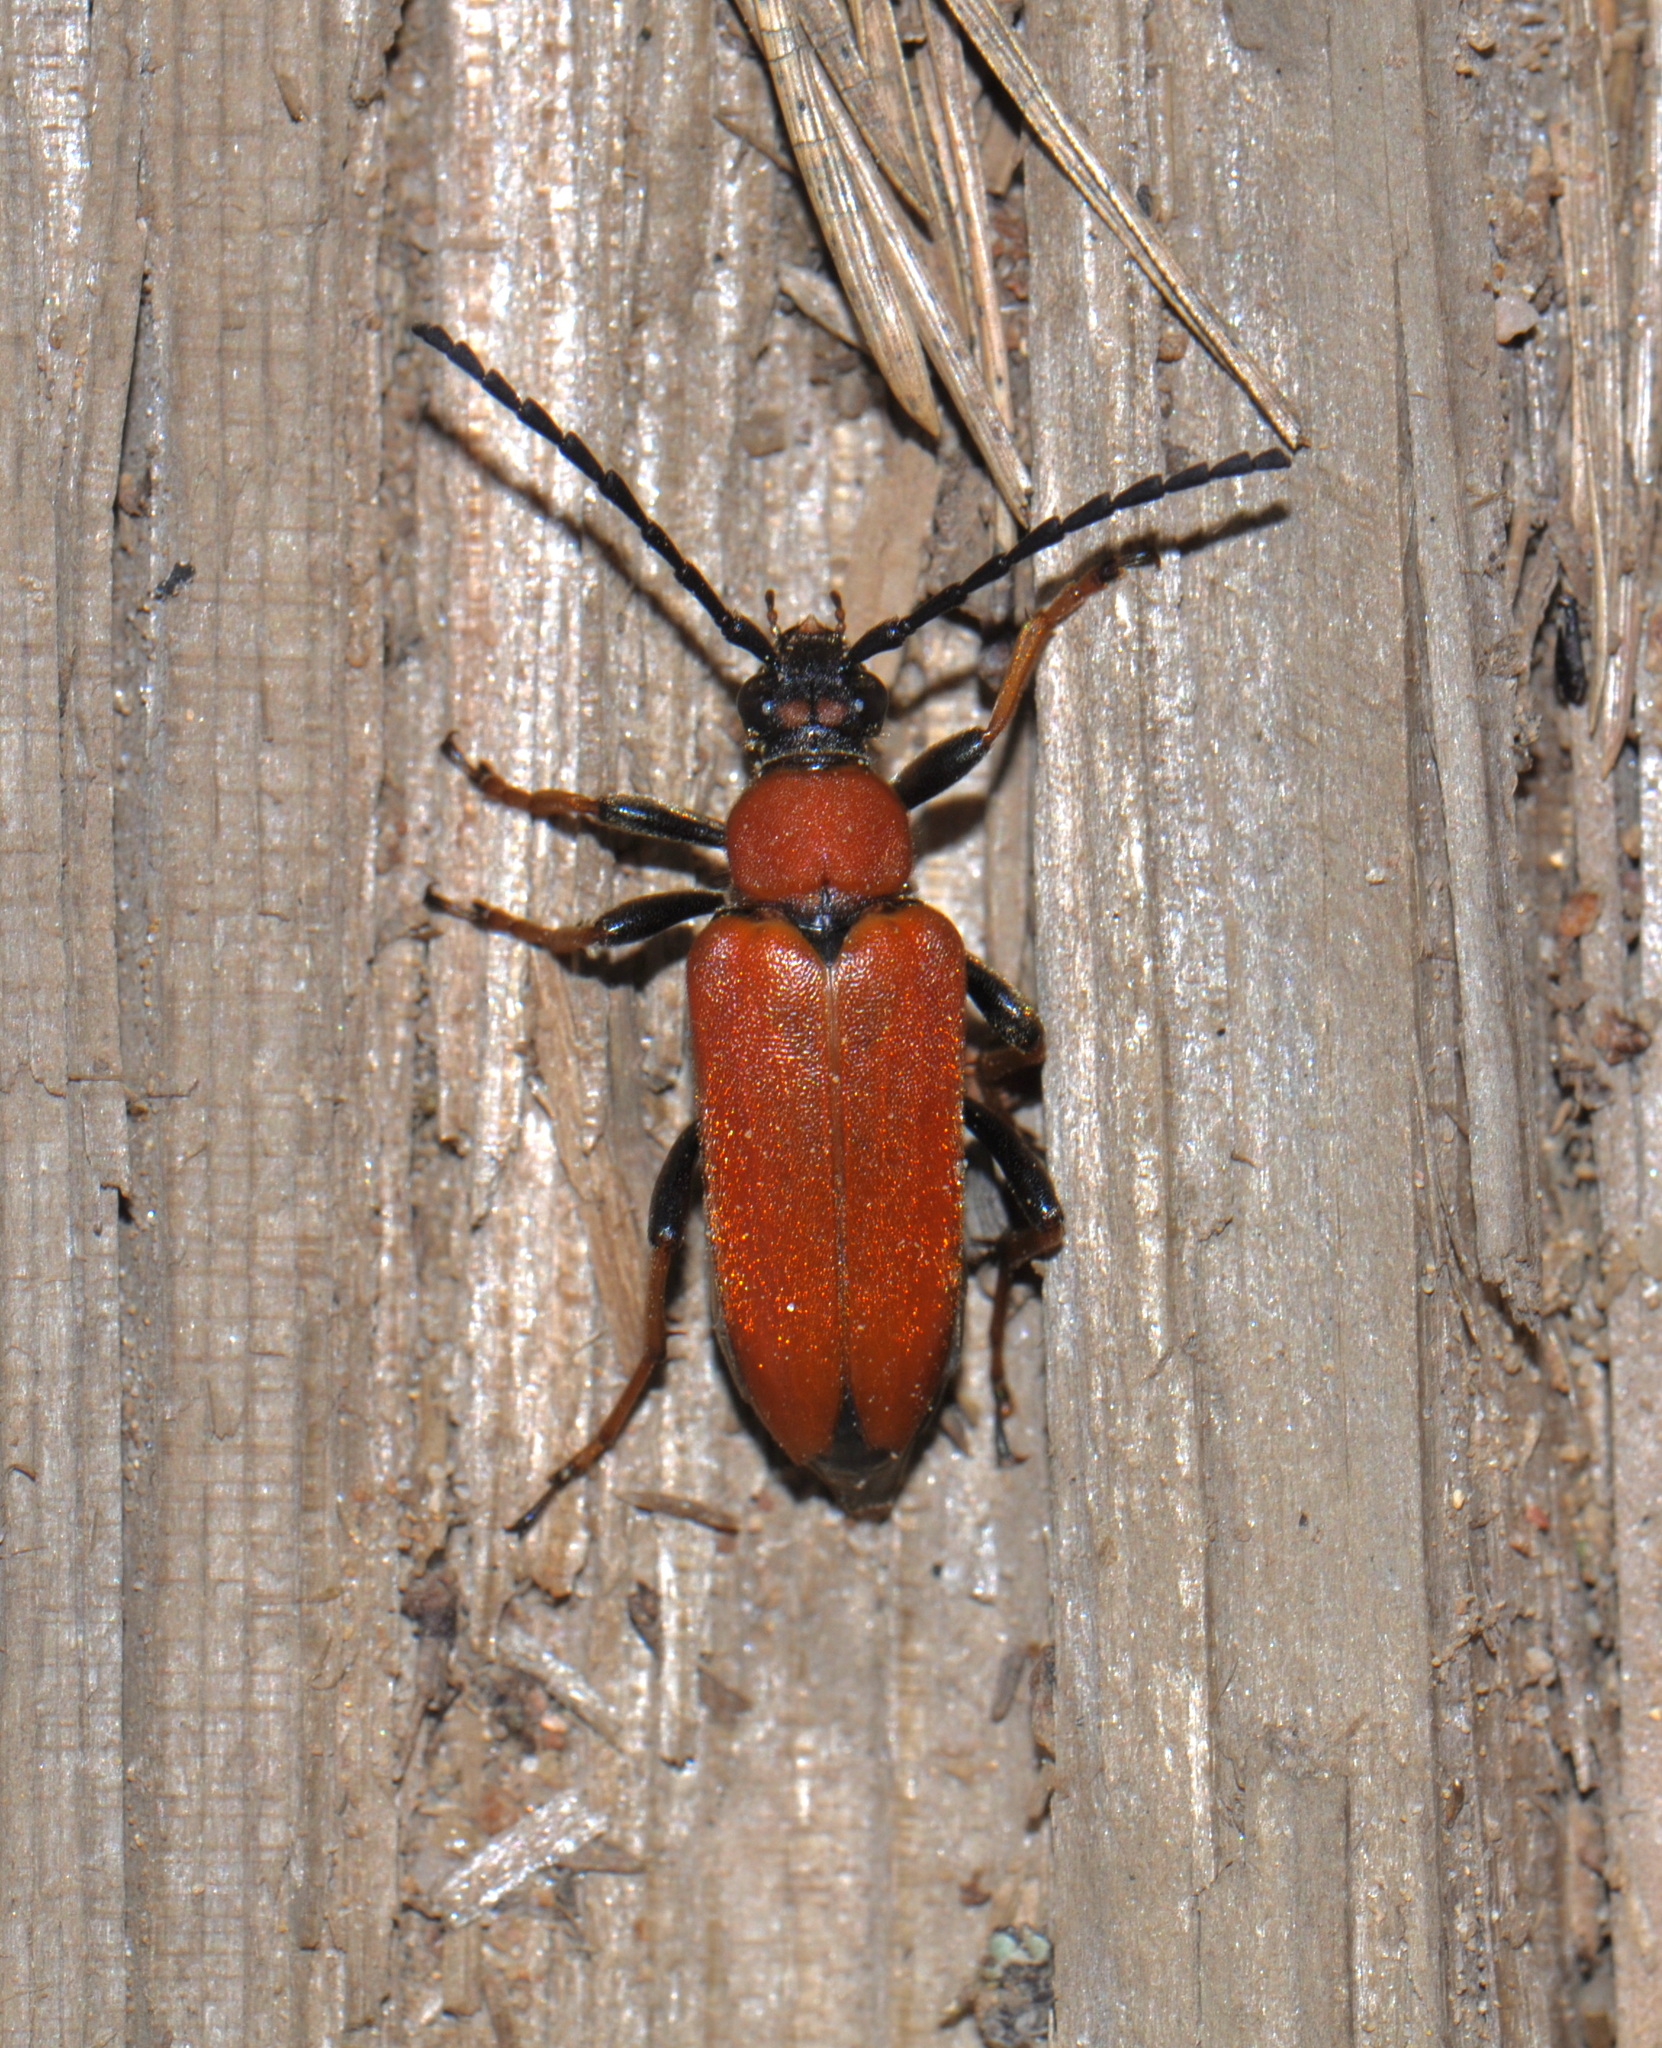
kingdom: Animalia
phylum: Arthropoda
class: Insecta
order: Coleoptera
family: Cerambycidae
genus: Stictoleptura
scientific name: Stictoleptura rubra
